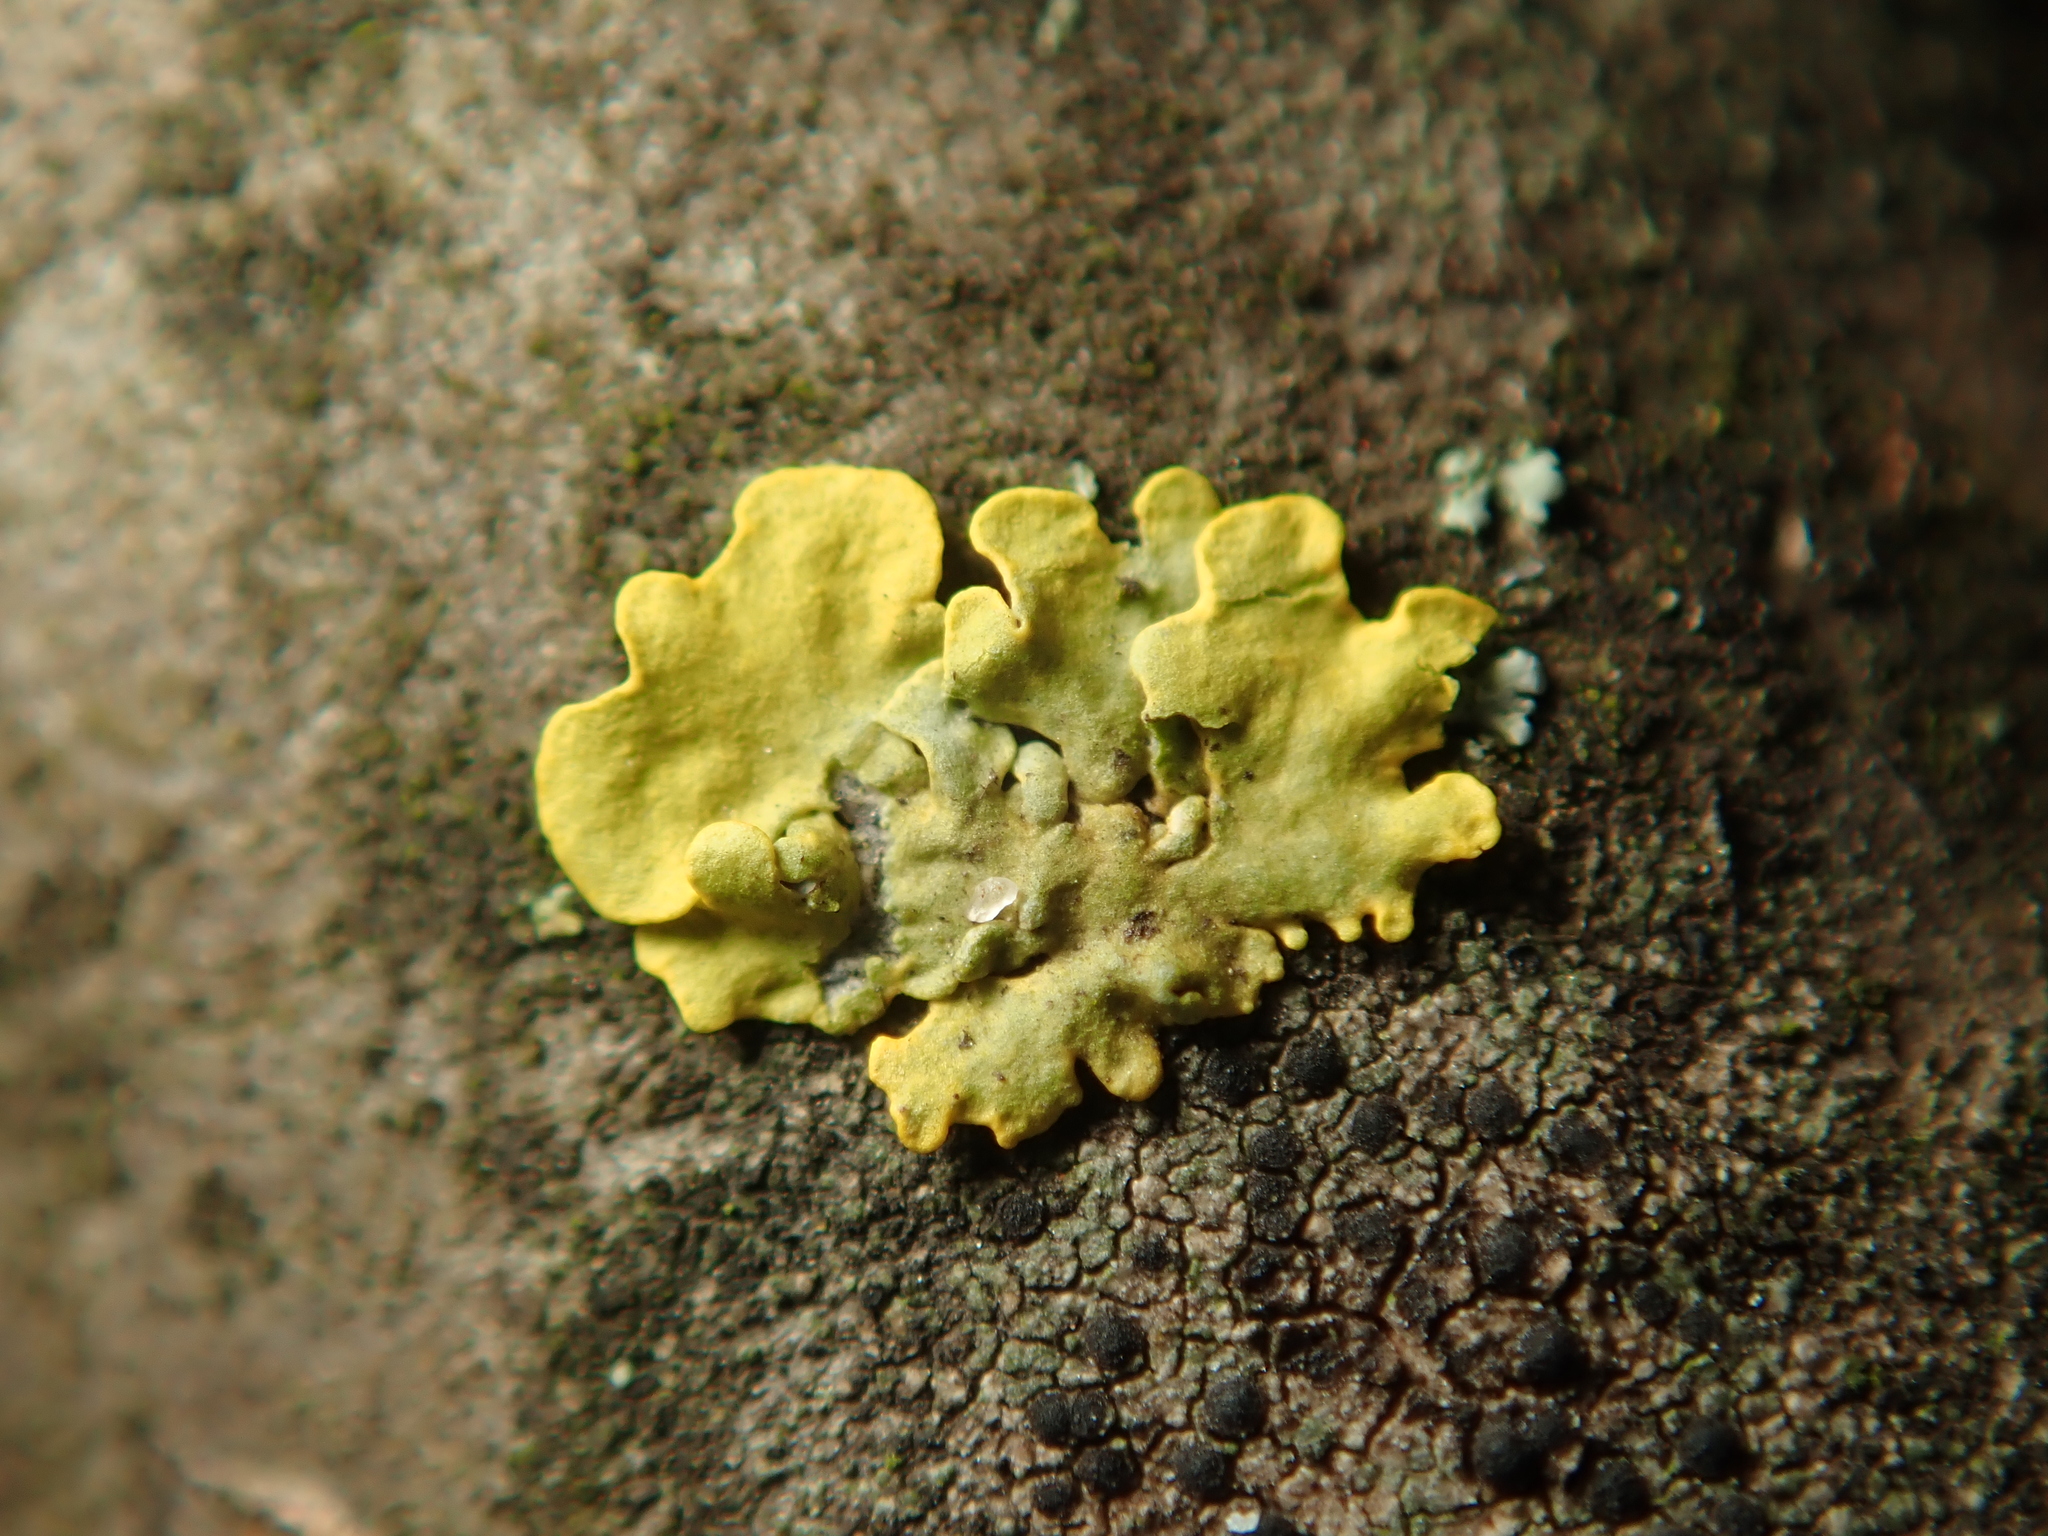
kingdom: Fungi
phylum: Ascomycota
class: Lecanoromycetes
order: Teloschistales
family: Teloschistaceae
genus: Xanthoria
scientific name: Xanthoria parietina
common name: Common orange lichen
